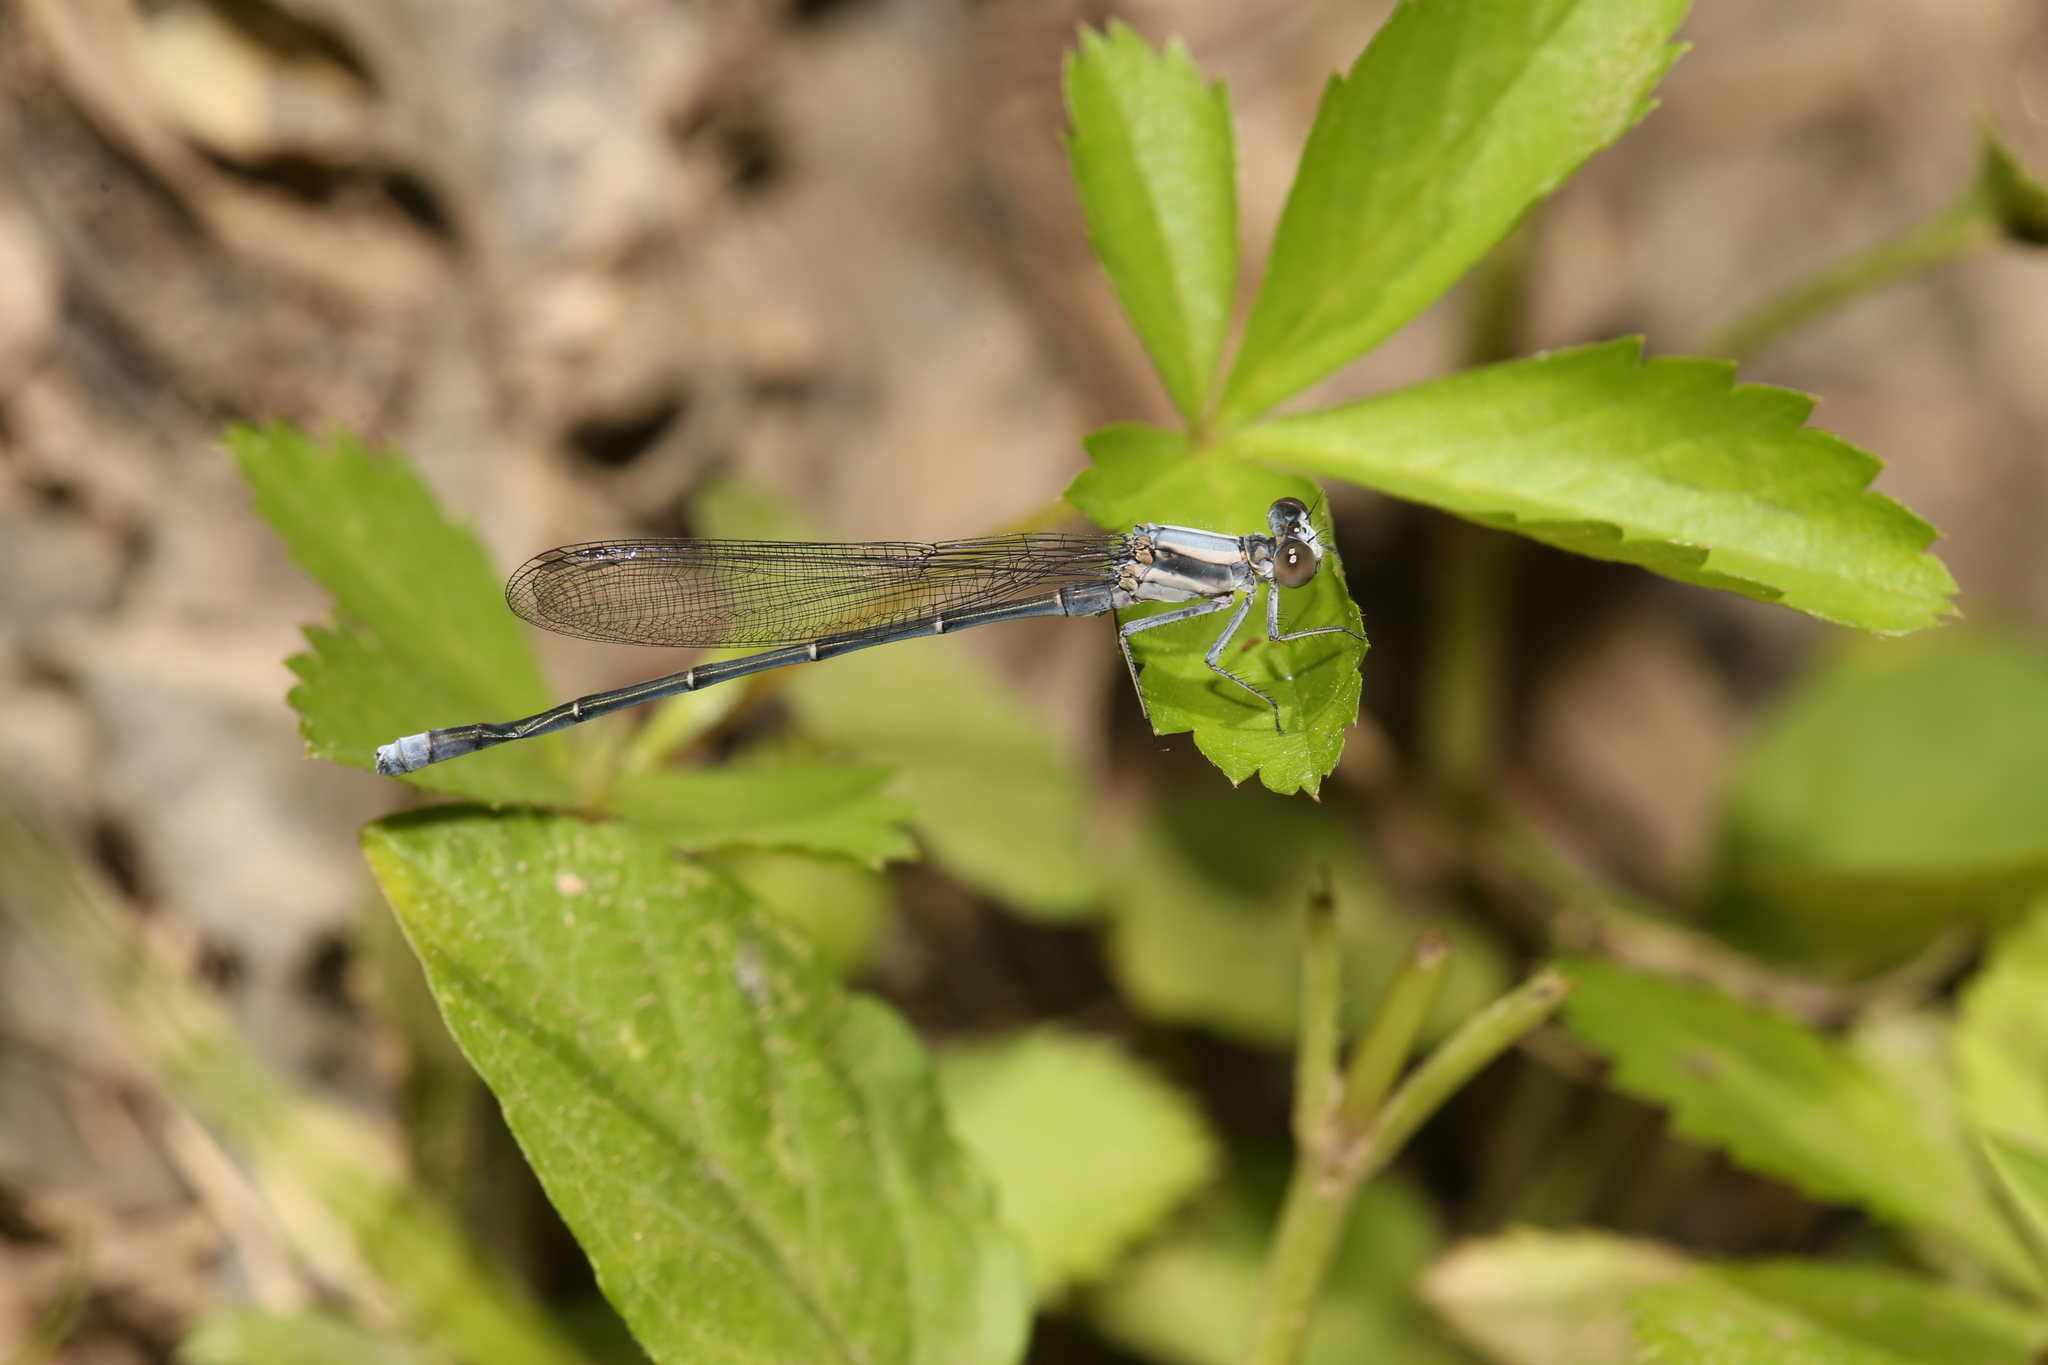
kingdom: Animalia
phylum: Arthropoda
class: Insecta
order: Odonata
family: Coenagrionidae
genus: Argia
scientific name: Argia moesta
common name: Powdered dancer
